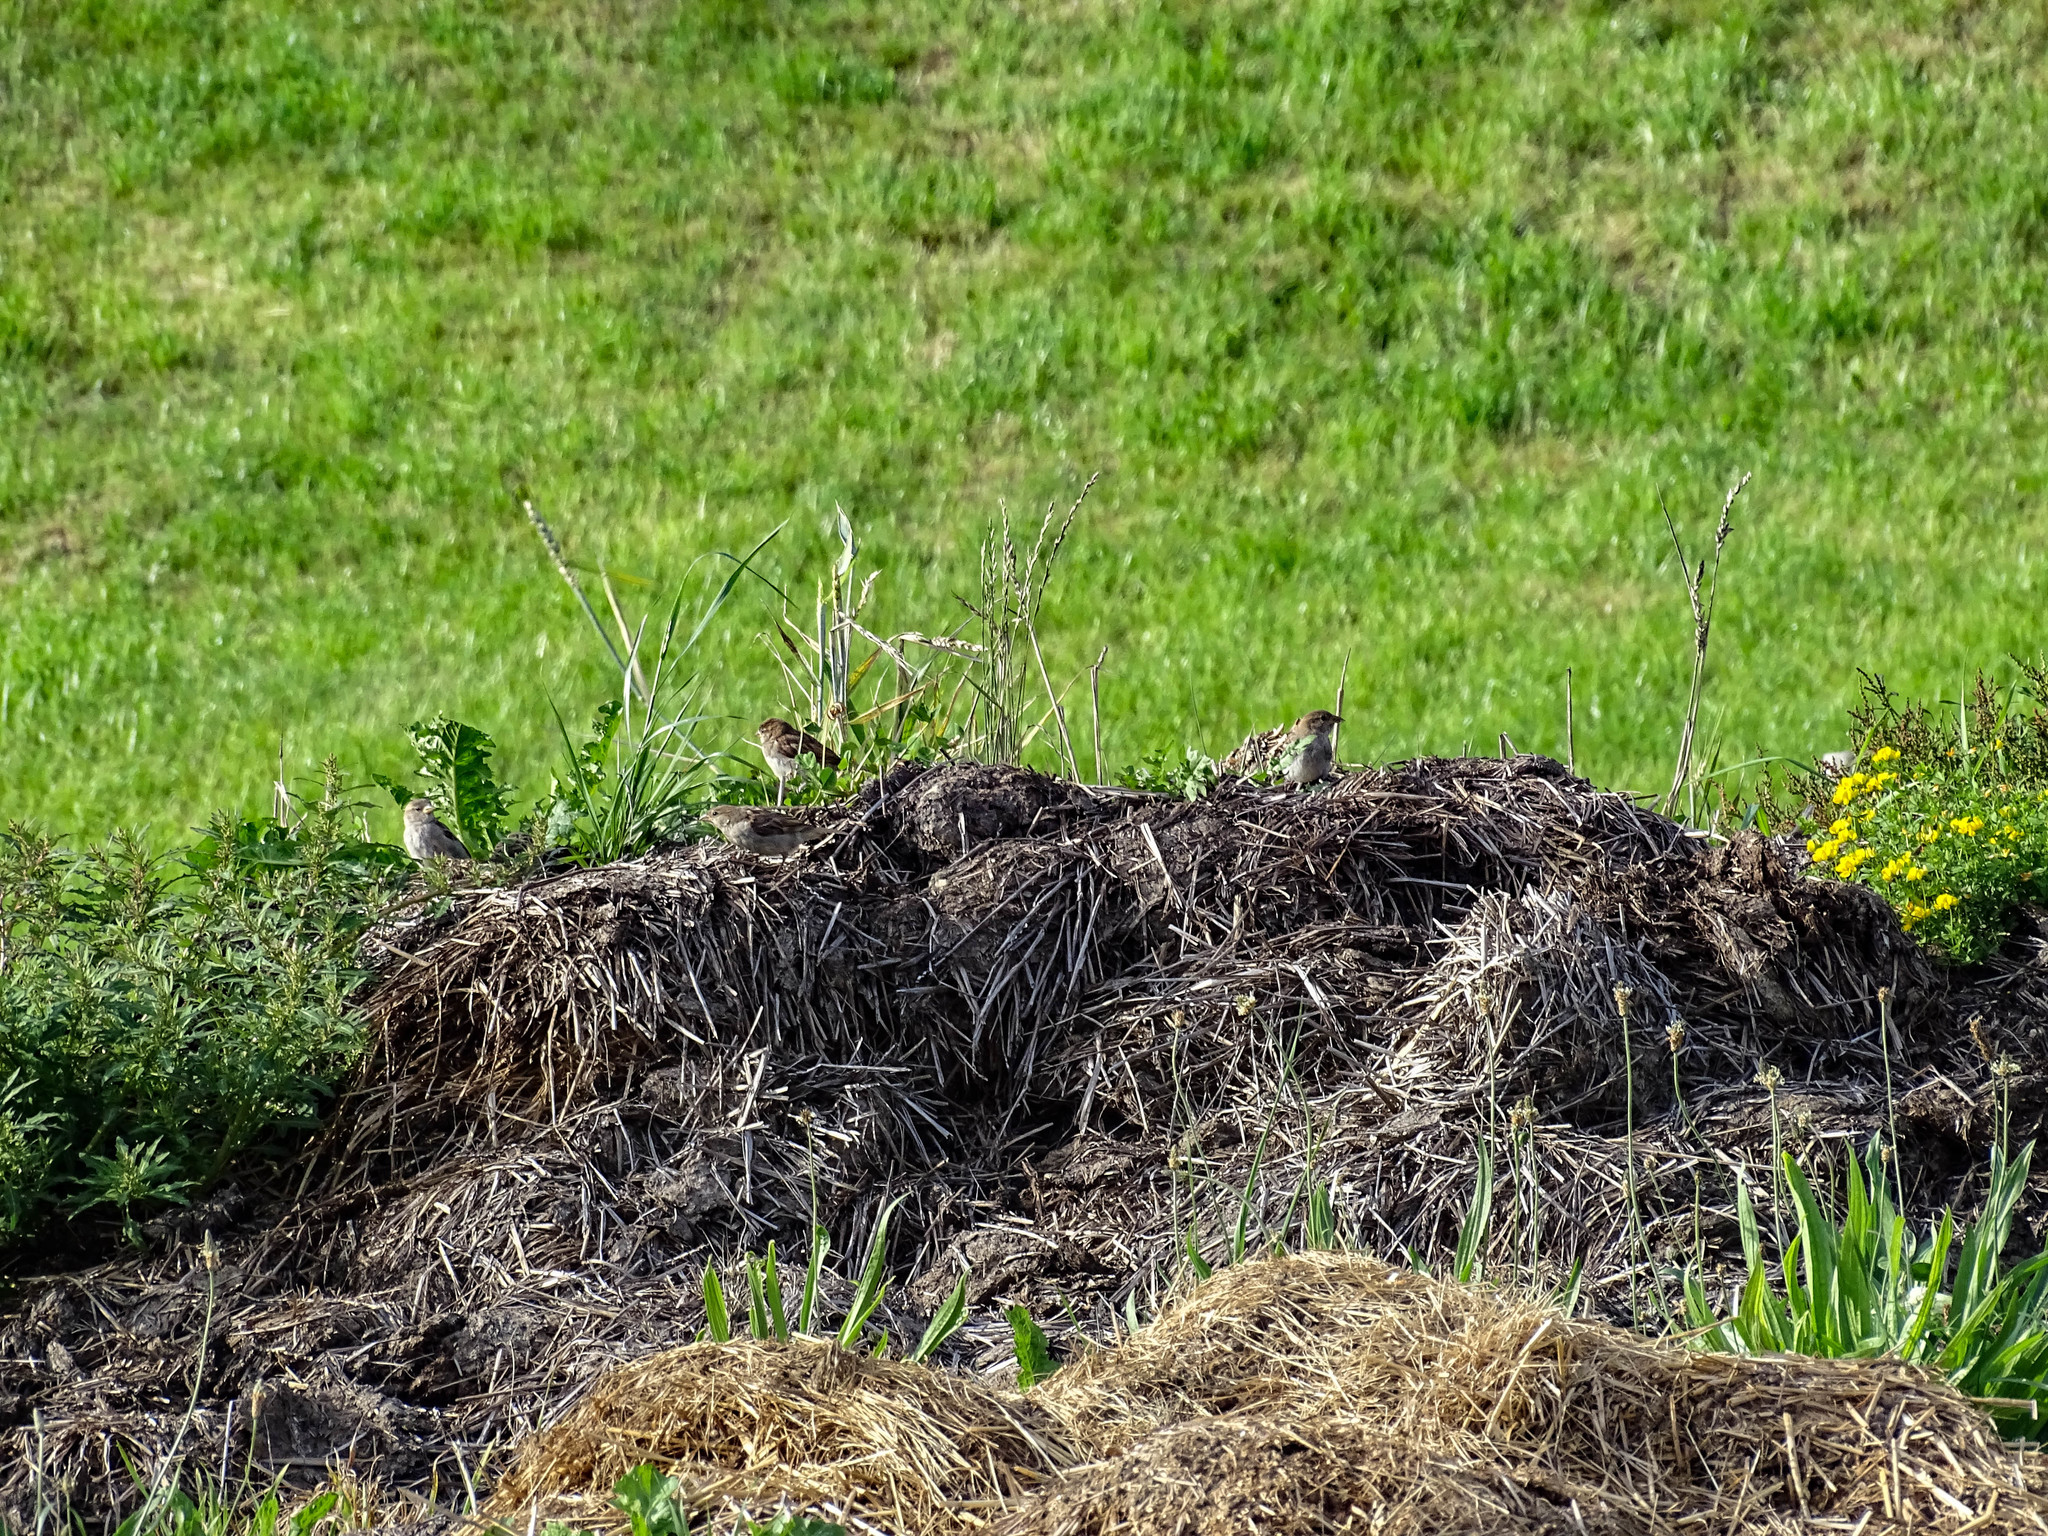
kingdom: Animalia
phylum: Chordata
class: Aves
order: Passeriformes
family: Passeridae
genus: Passer
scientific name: Passer domesticus
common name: House sparrow
